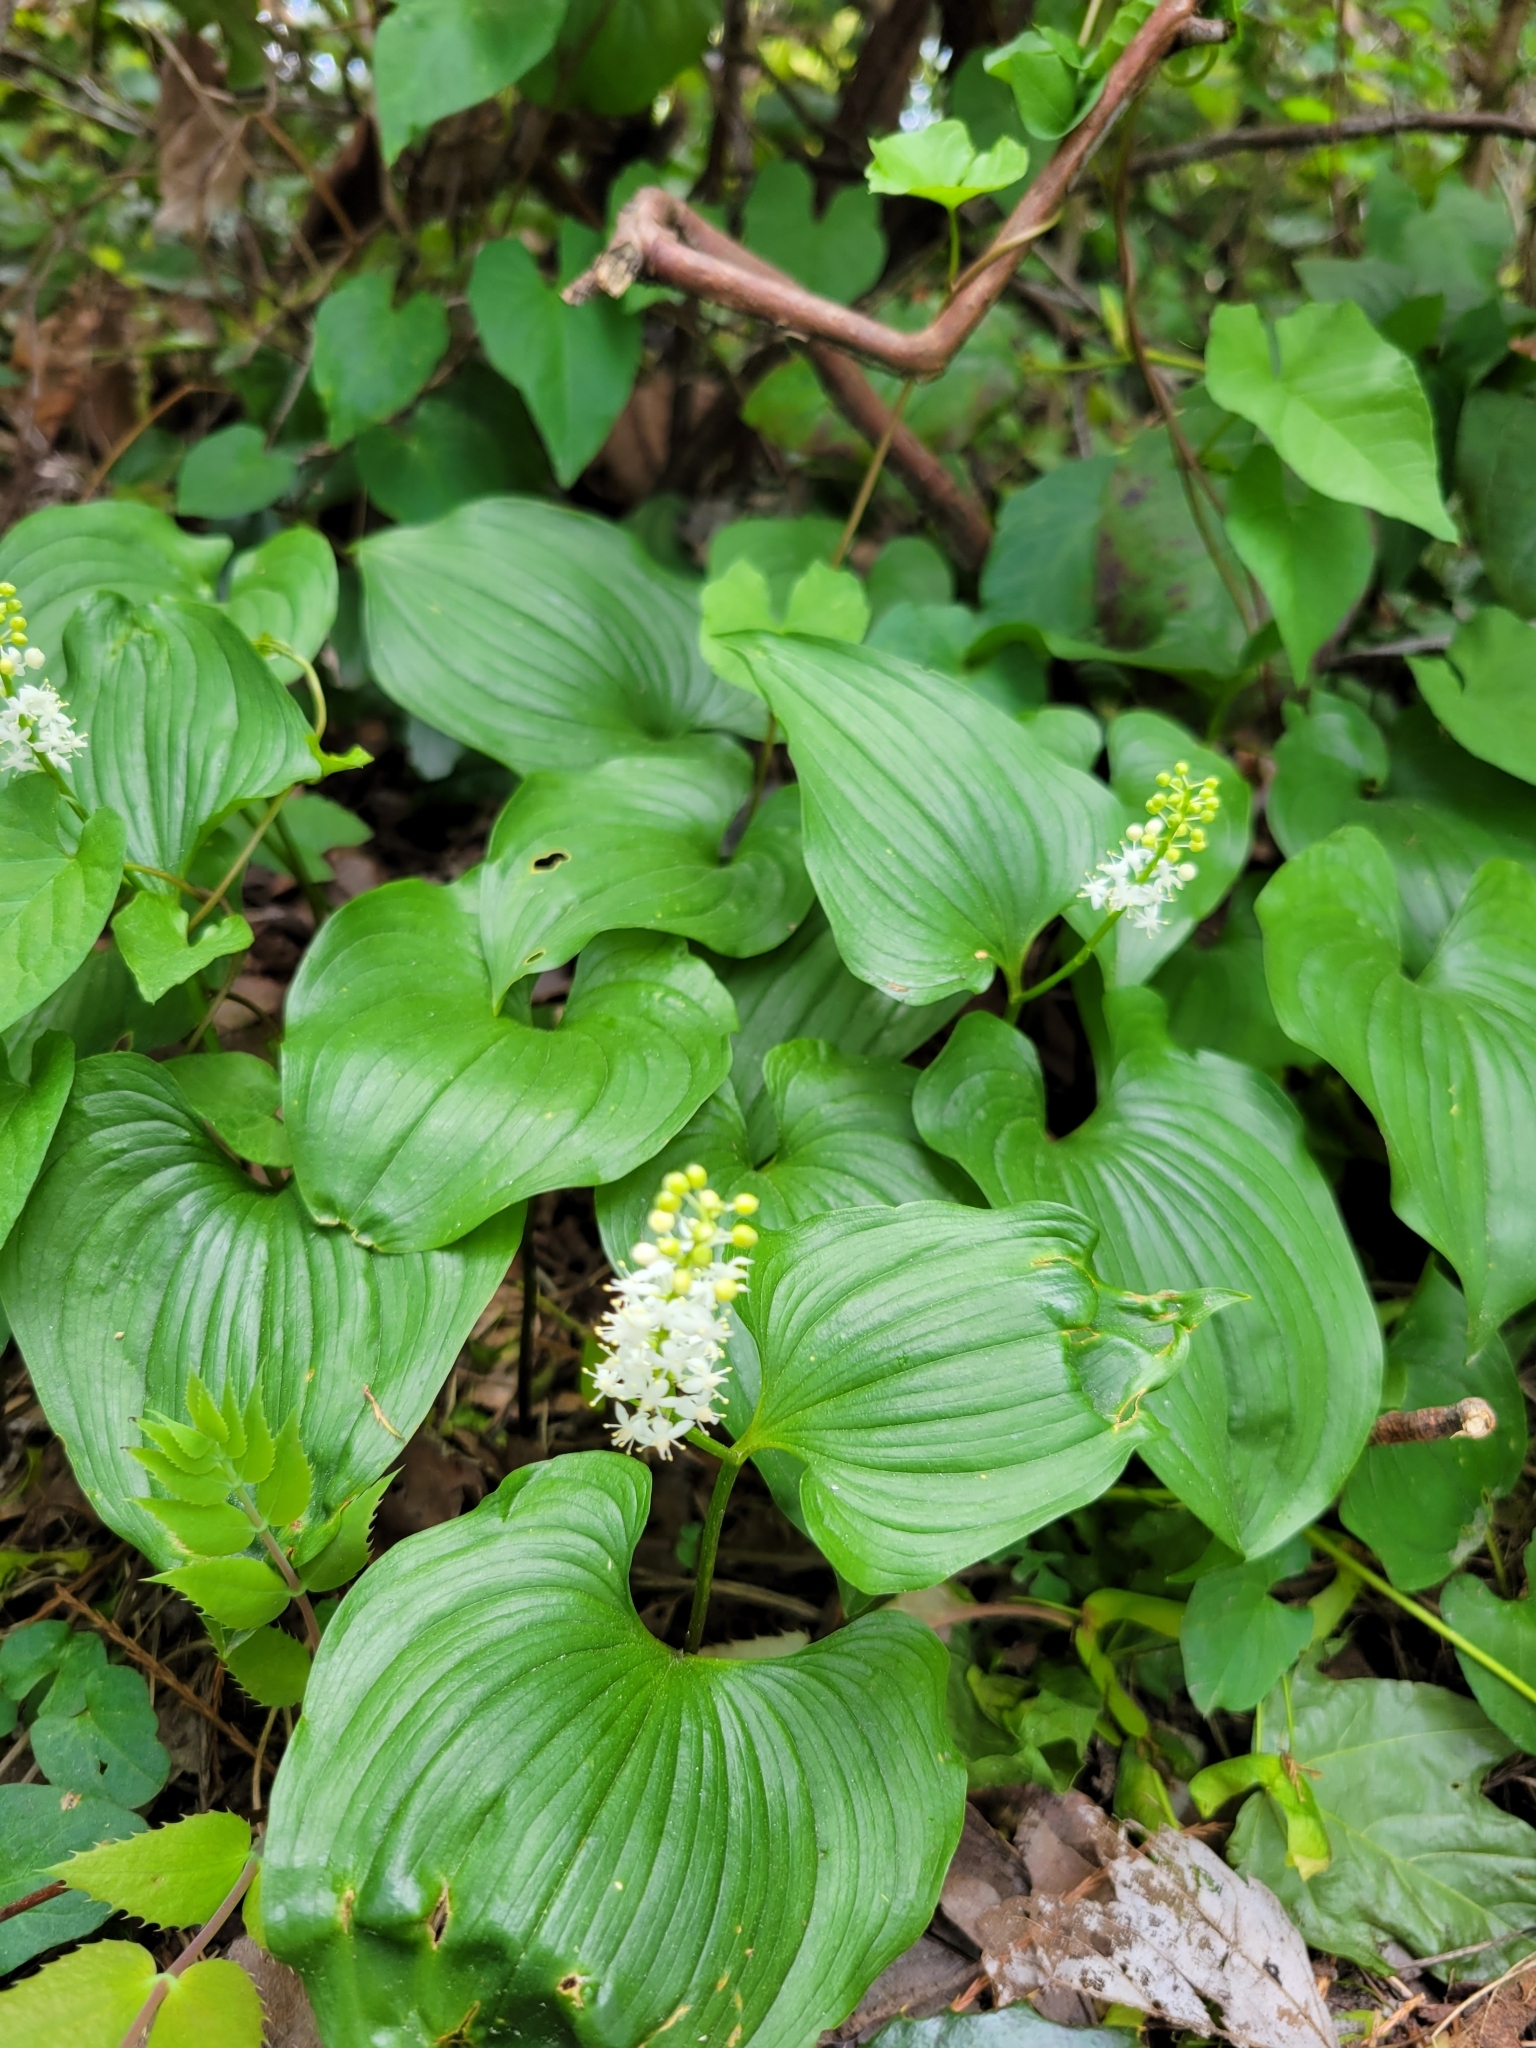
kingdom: Plantae
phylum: Tracheophyta
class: Liliopsida
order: Asparagales
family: Asparagaceae
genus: Maianthemum
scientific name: Maianthemum dilatatum
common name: False lily-of-the-valley
